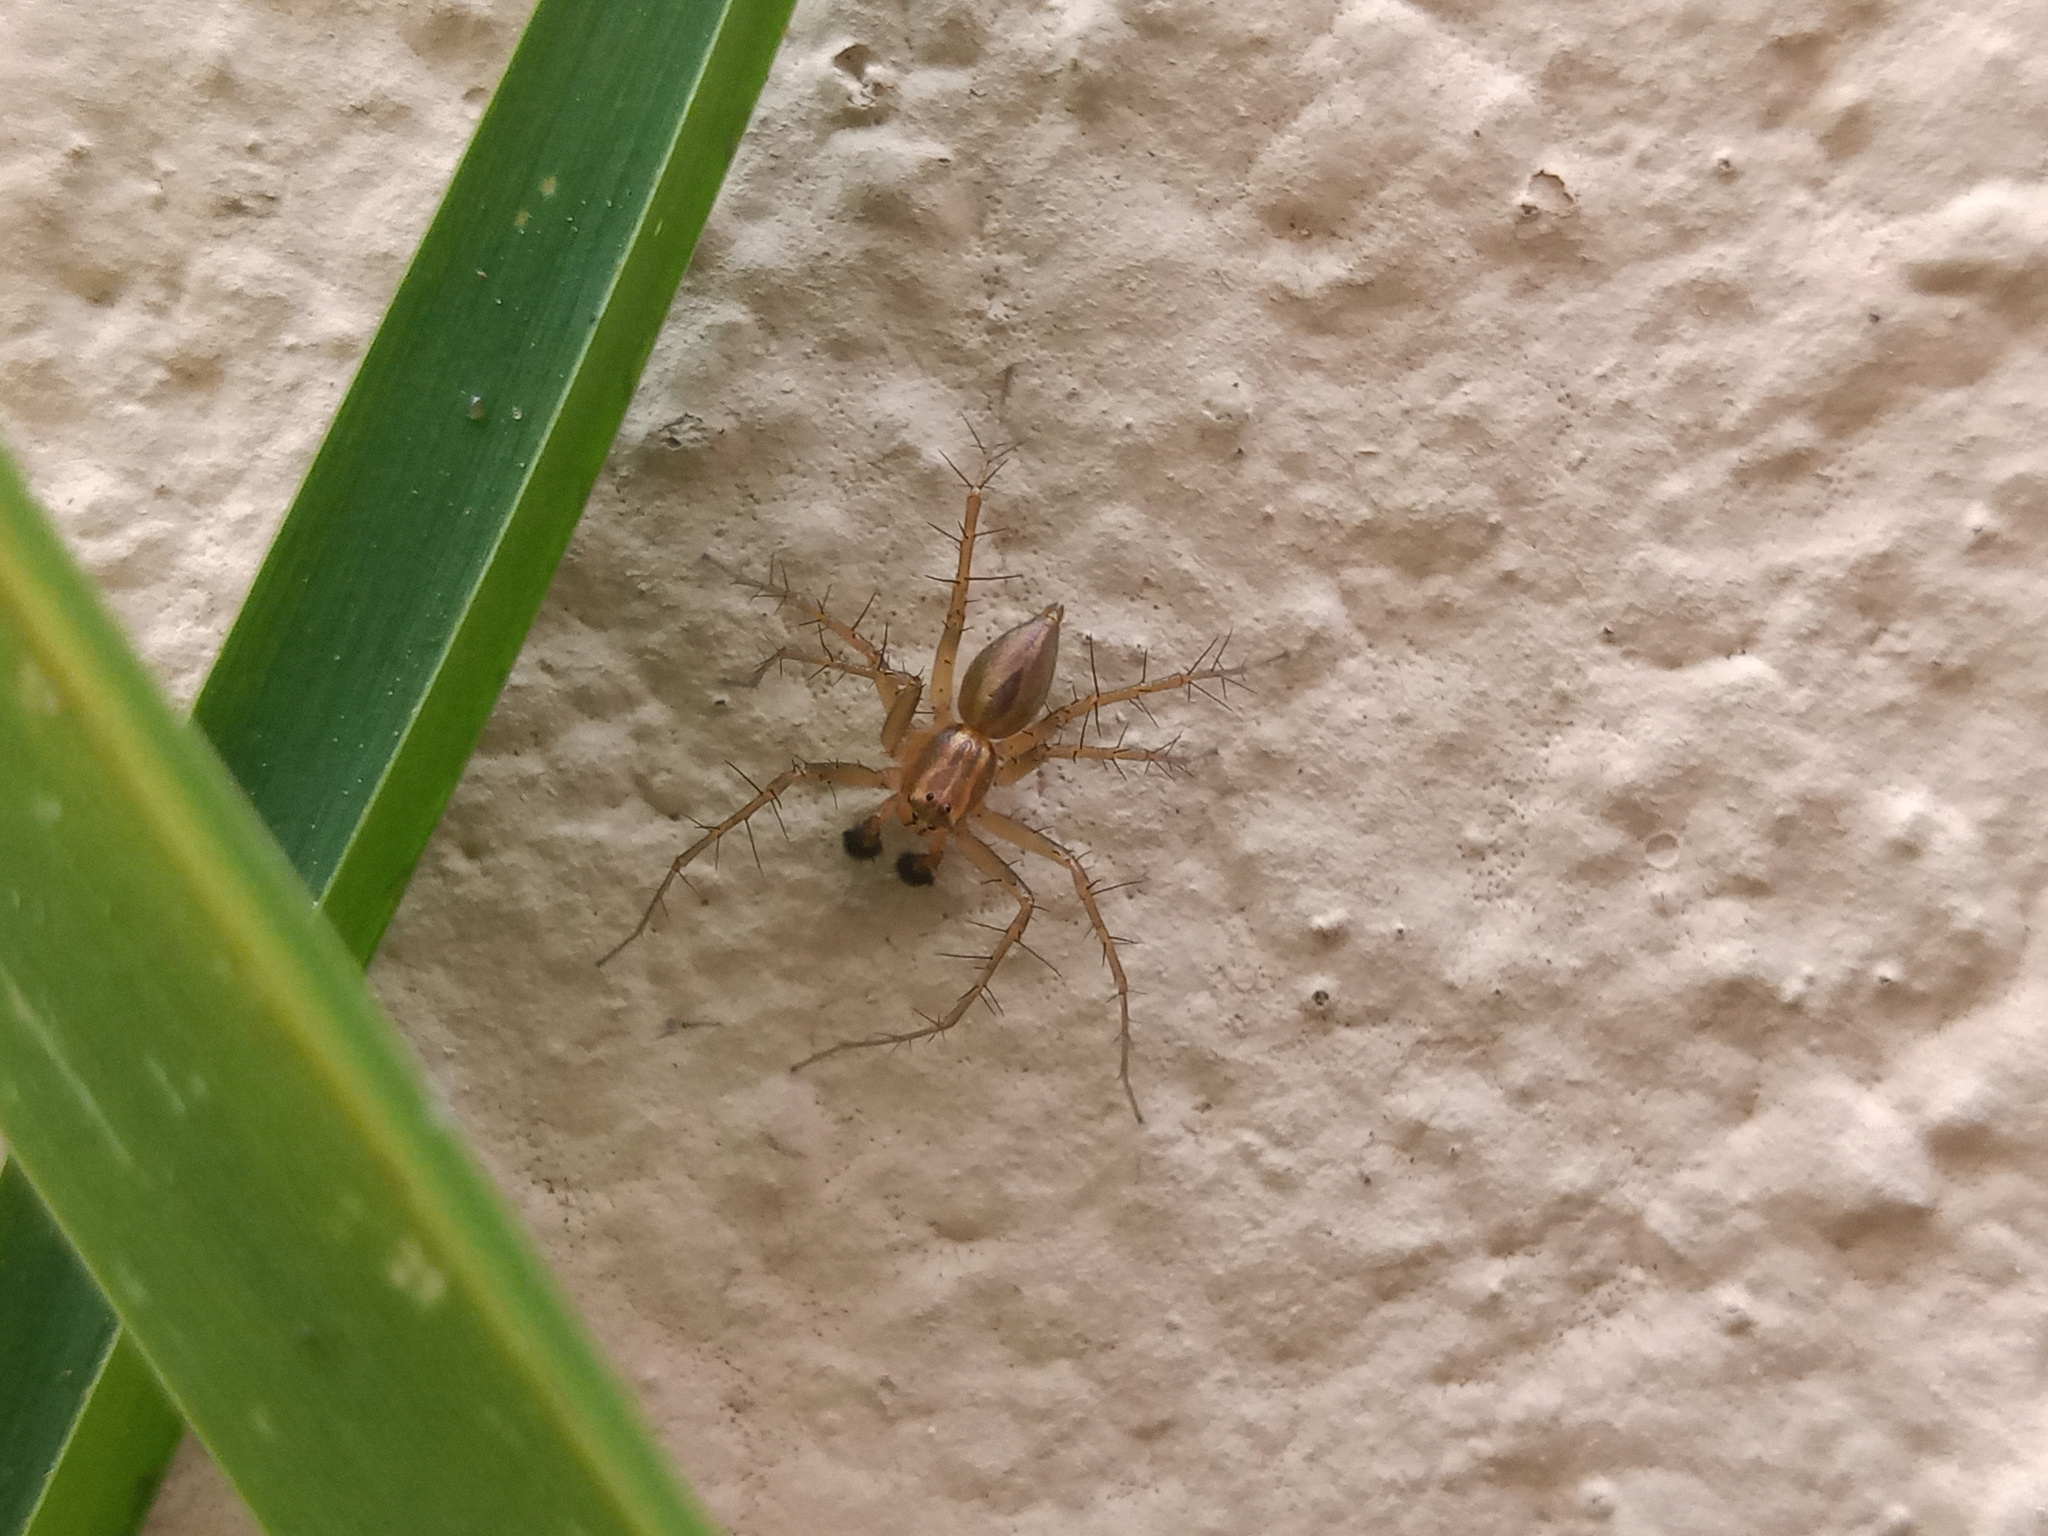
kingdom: Animalia
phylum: Arthropoda
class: Arachnida
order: Araneae
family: Oxyopidae
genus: Oxyopes
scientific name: Oxyopes salticus
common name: Lynx spiders
